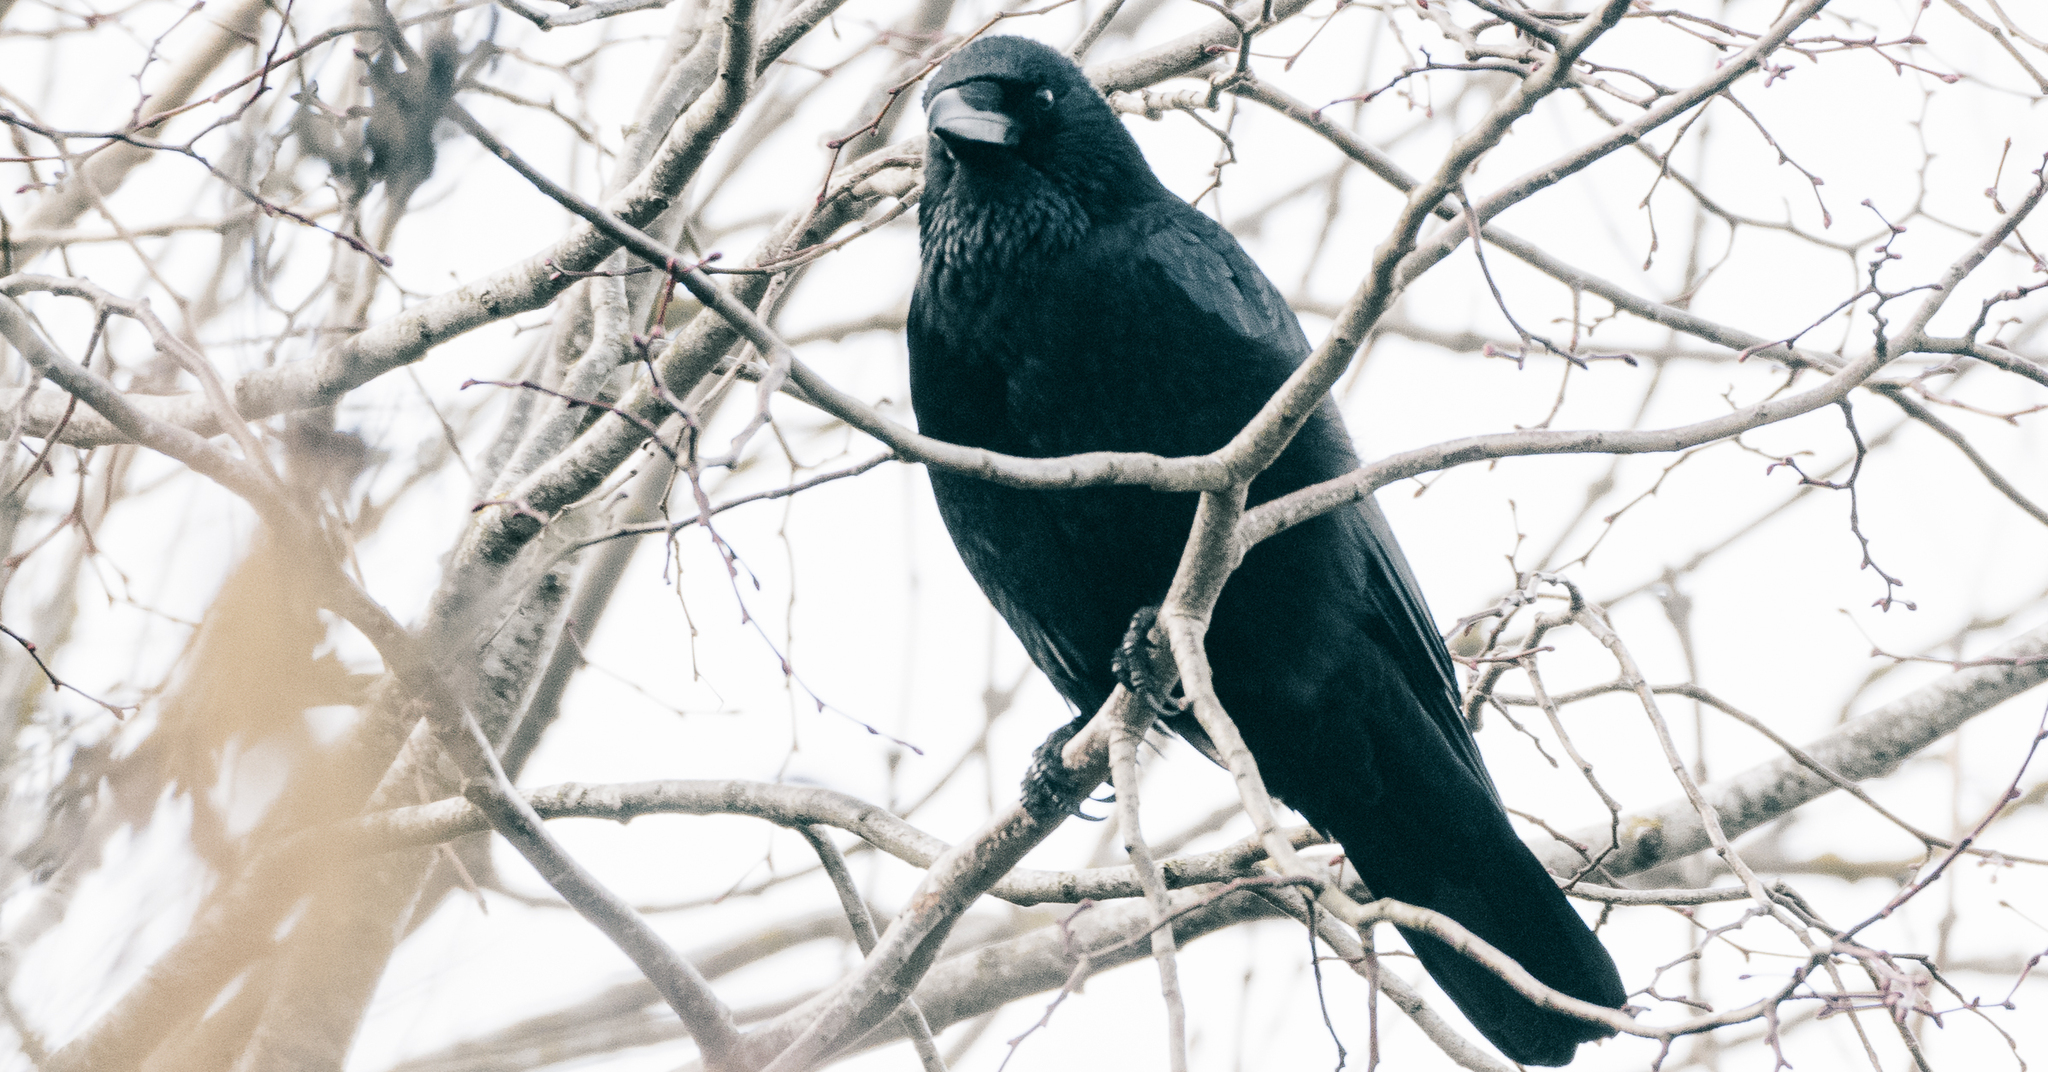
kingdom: Animalia
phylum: Chordata
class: Aves
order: Passeriformes
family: Corvidae
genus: Corvus
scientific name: Corvus corone
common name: Carrion crow
